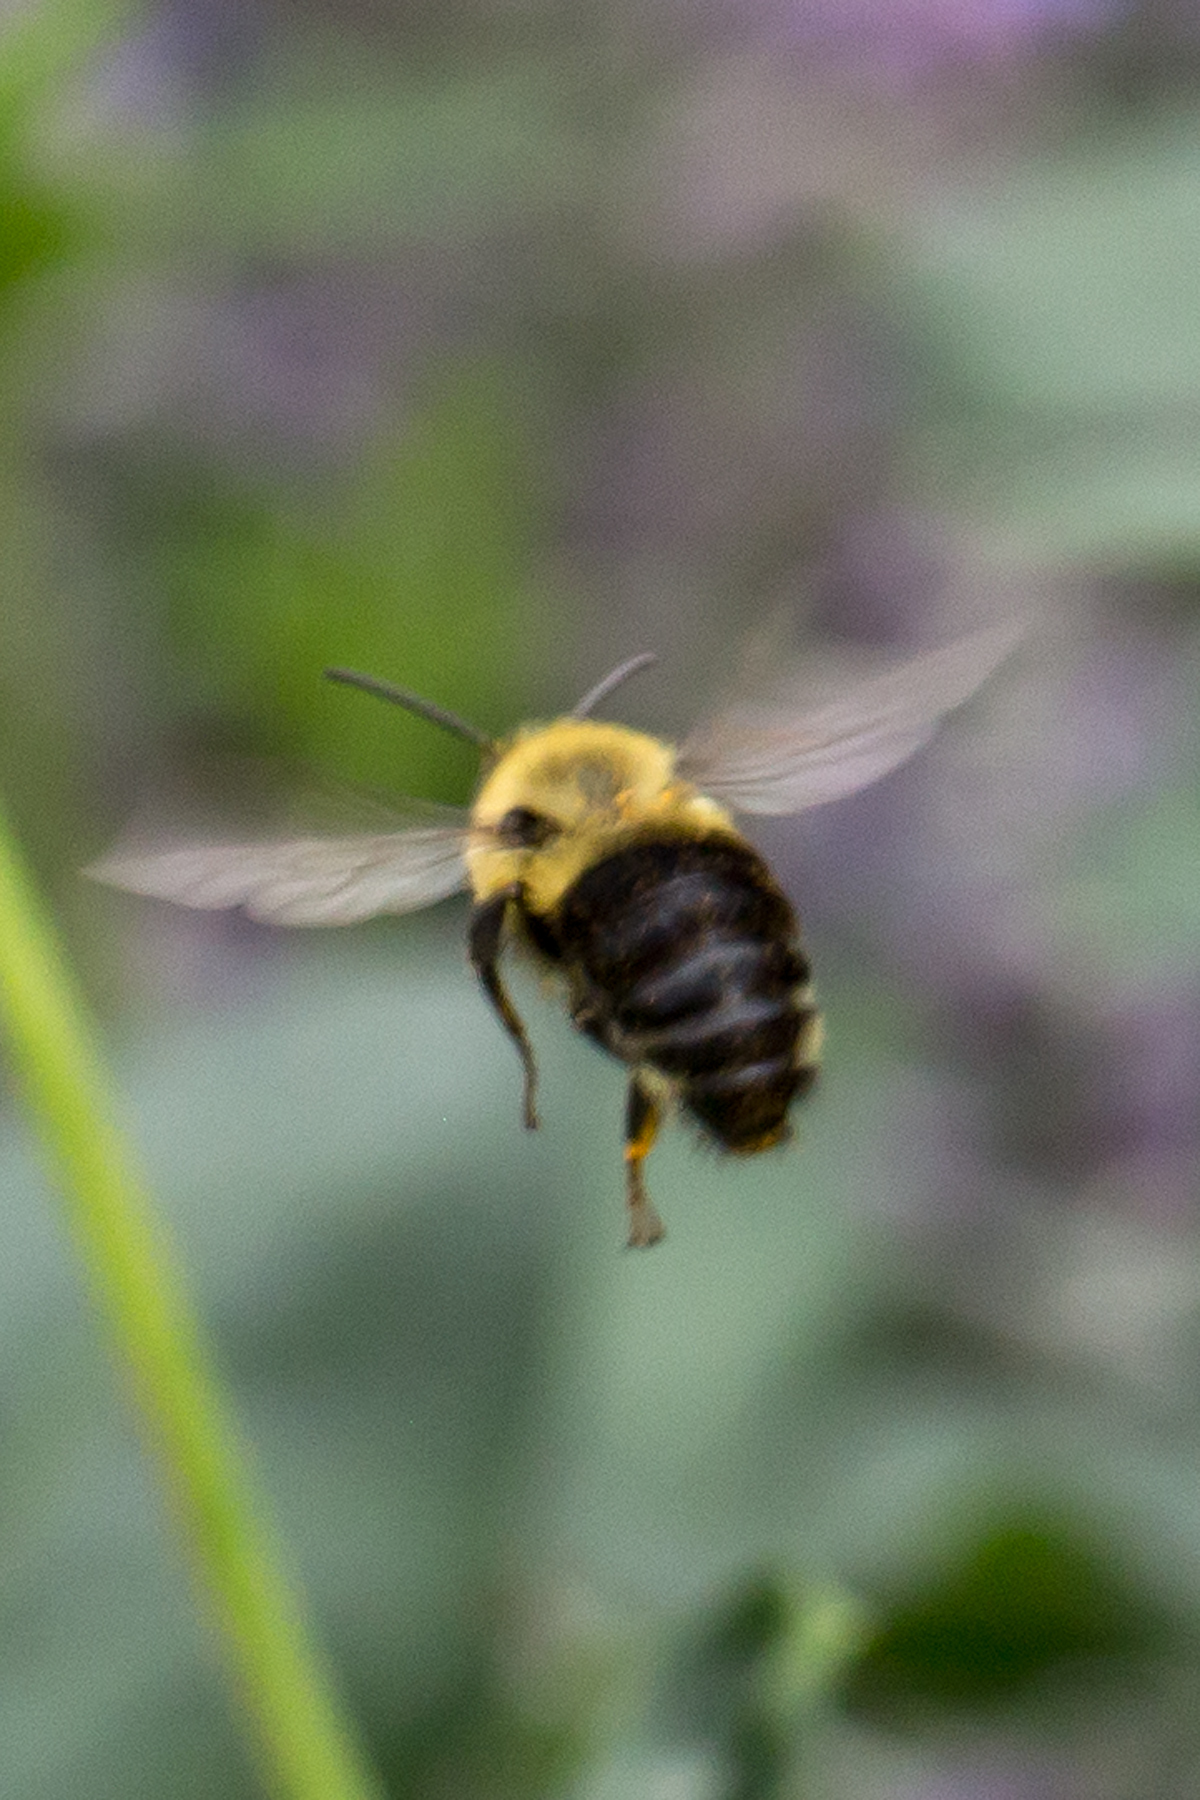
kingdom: Animalia
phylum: Arthropoda
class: Insecta
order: Hymenoptera
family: Apidae
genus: Bombus
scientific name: Bombus impatiens
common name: Common eastern bumble bee
